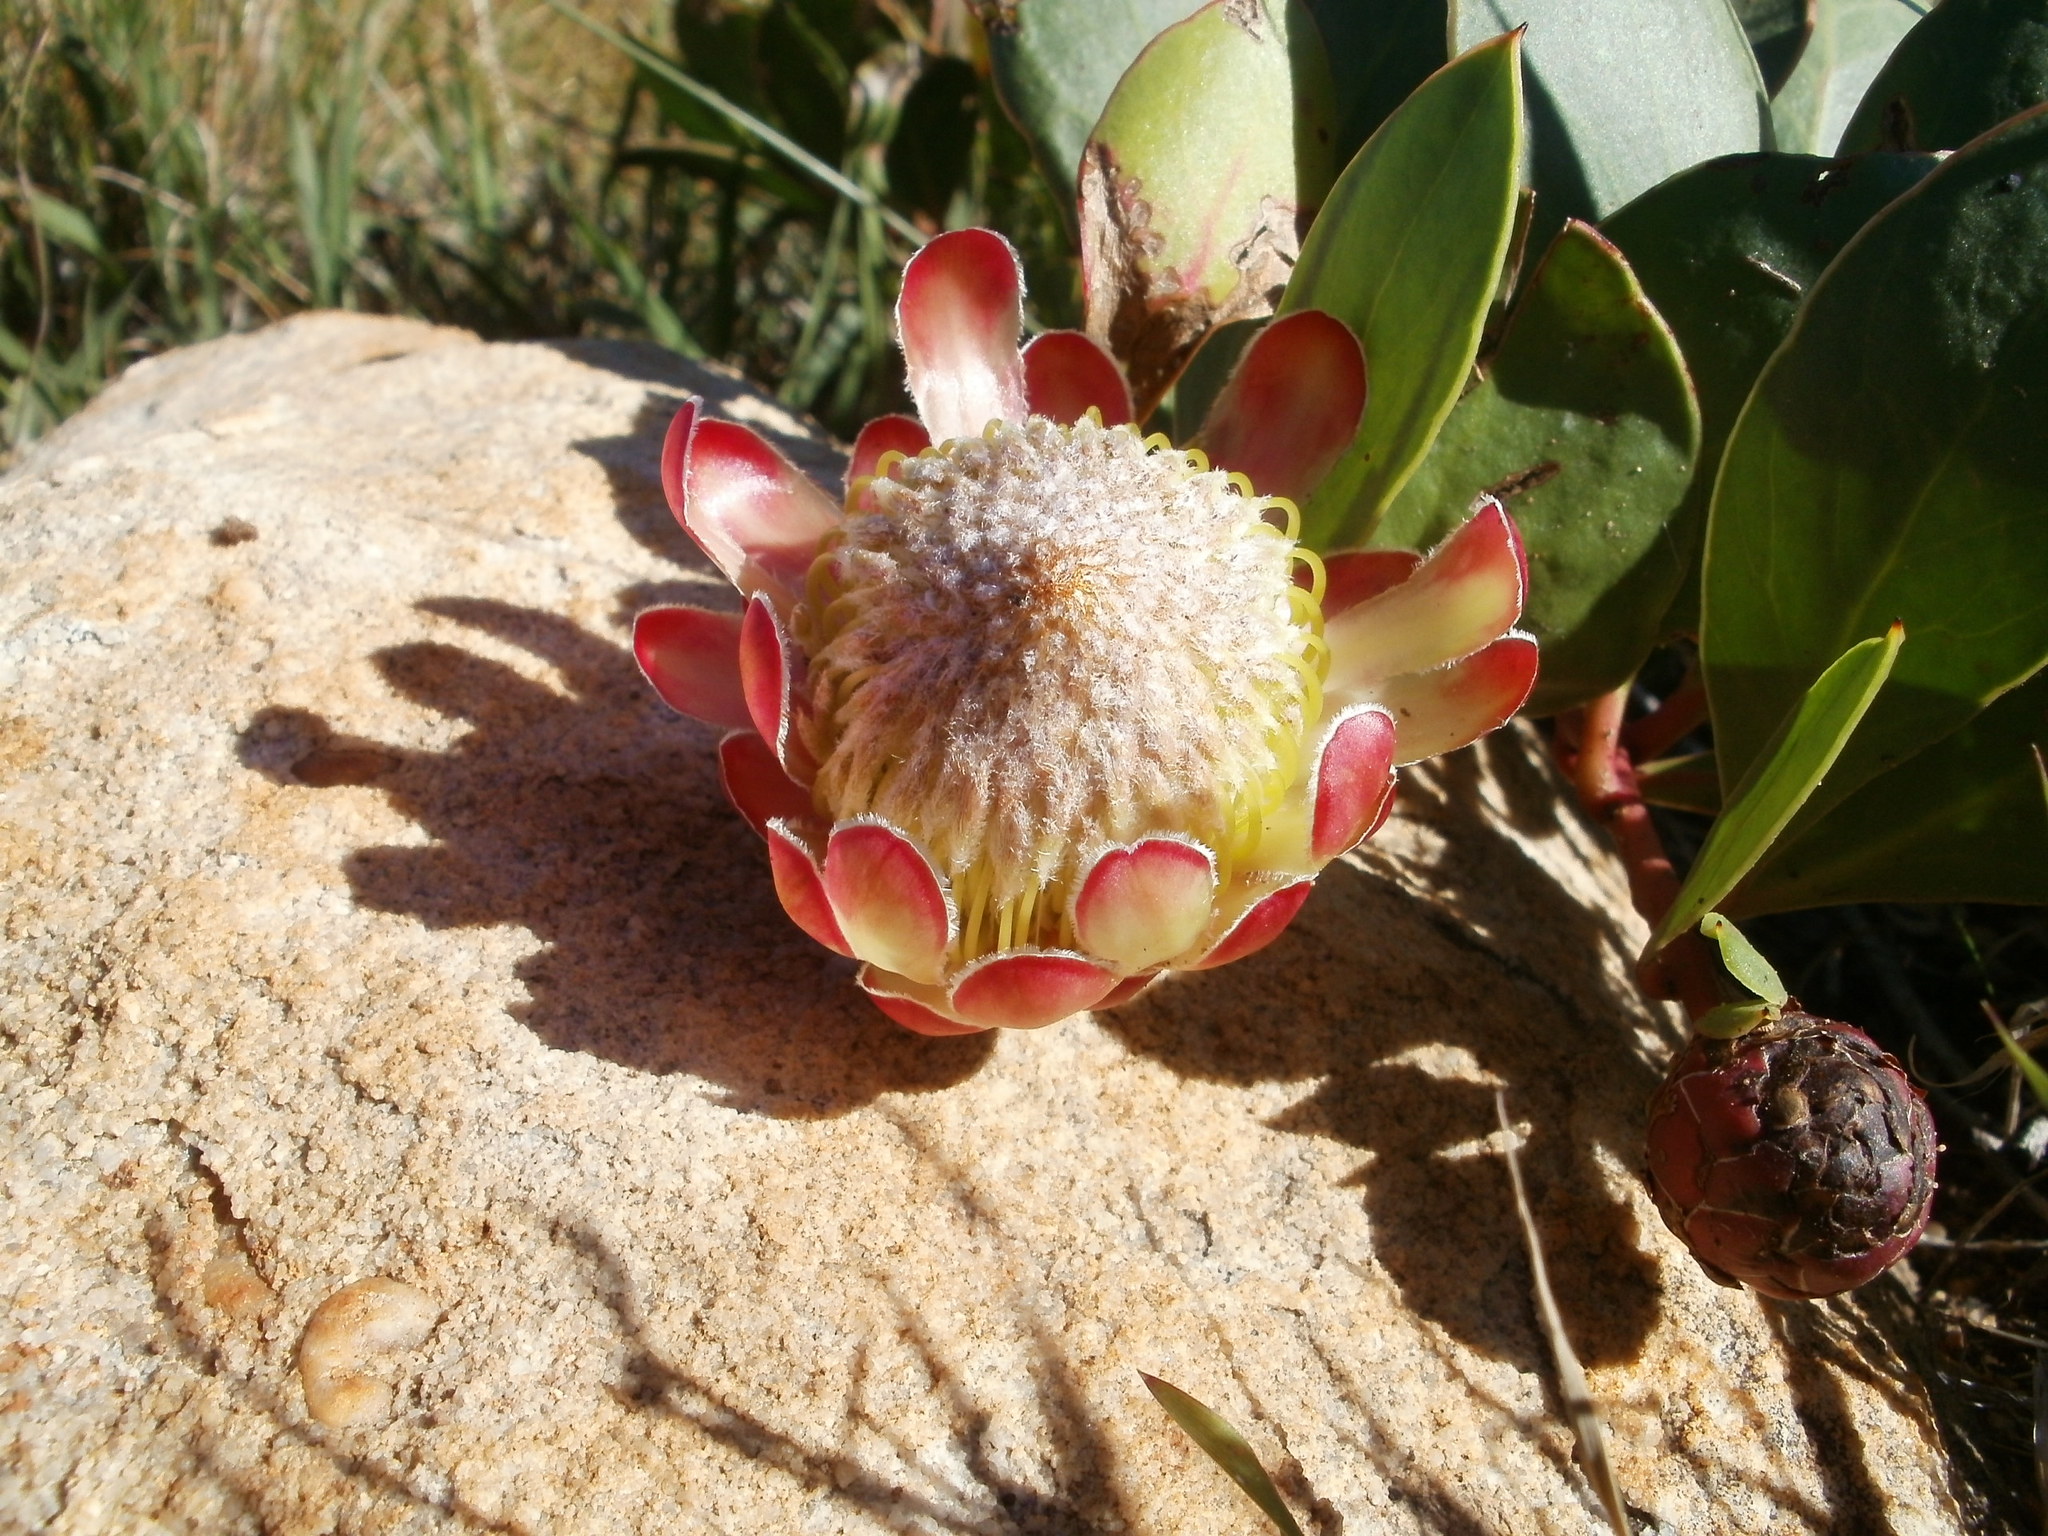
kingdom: Plantae
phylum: Tracheophyta
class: Magnoliopsida
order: Proteales
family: Proteaceae
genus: Protea
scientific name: Protea acaulos
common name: Common ground sugarbush
